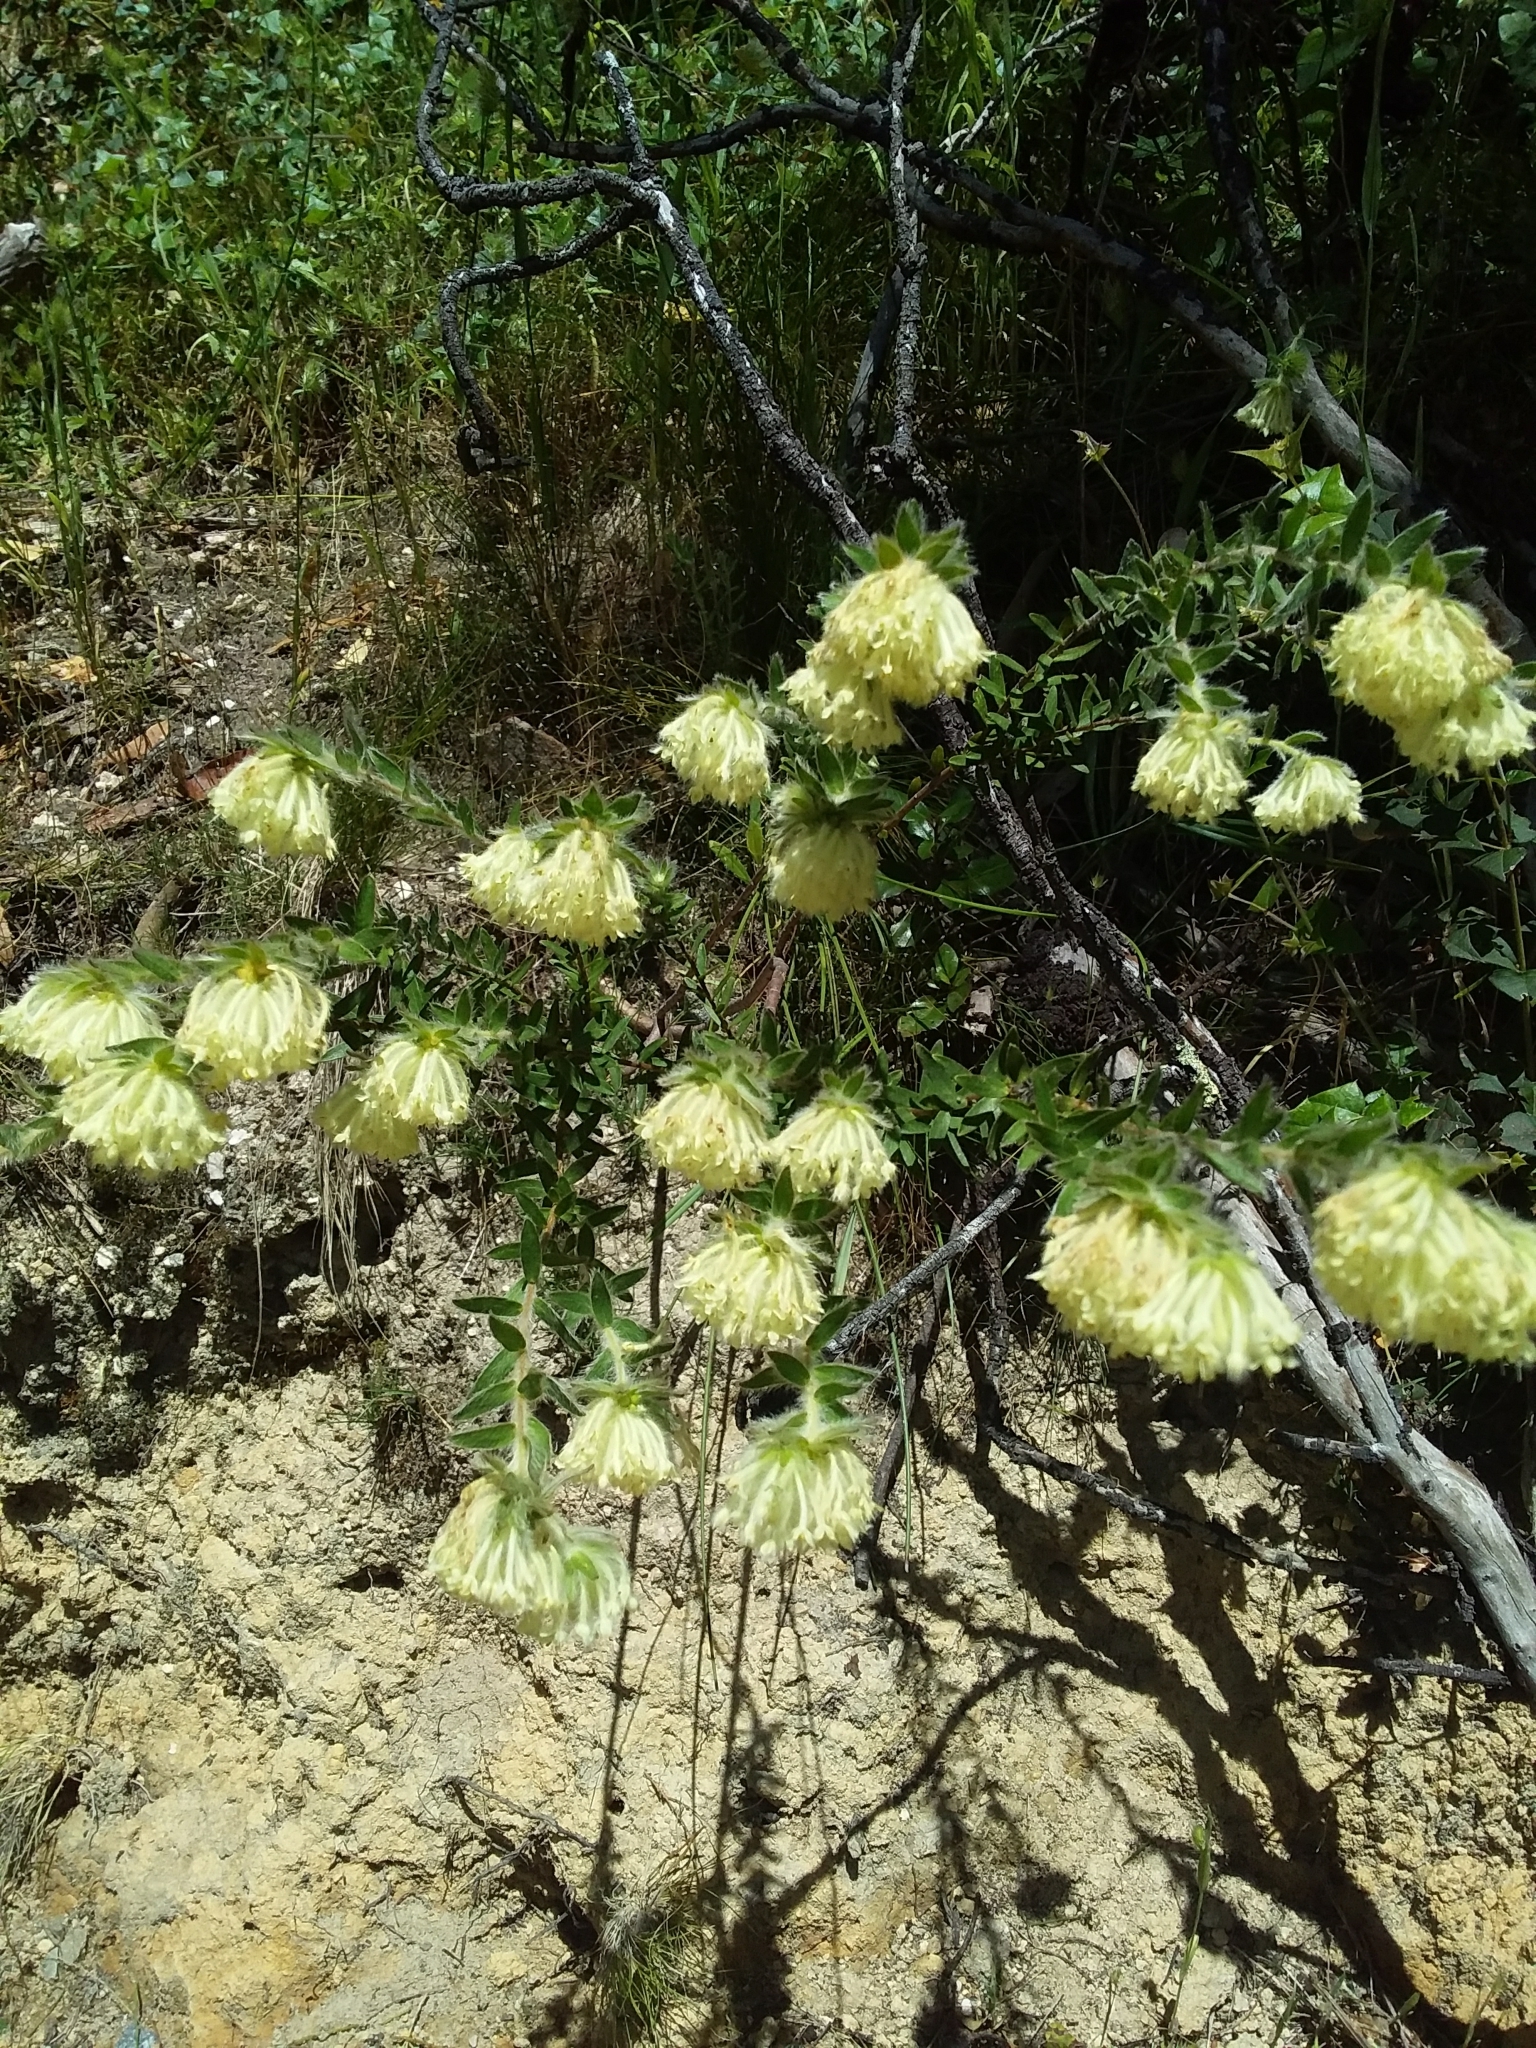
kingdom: Plantae
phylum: Tracheophyta
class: Magnoliopsida
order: Malvales
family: Thymelaeaceae
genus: Pimelea
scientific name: Pimelea octophylla
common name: Woolly riceflower
